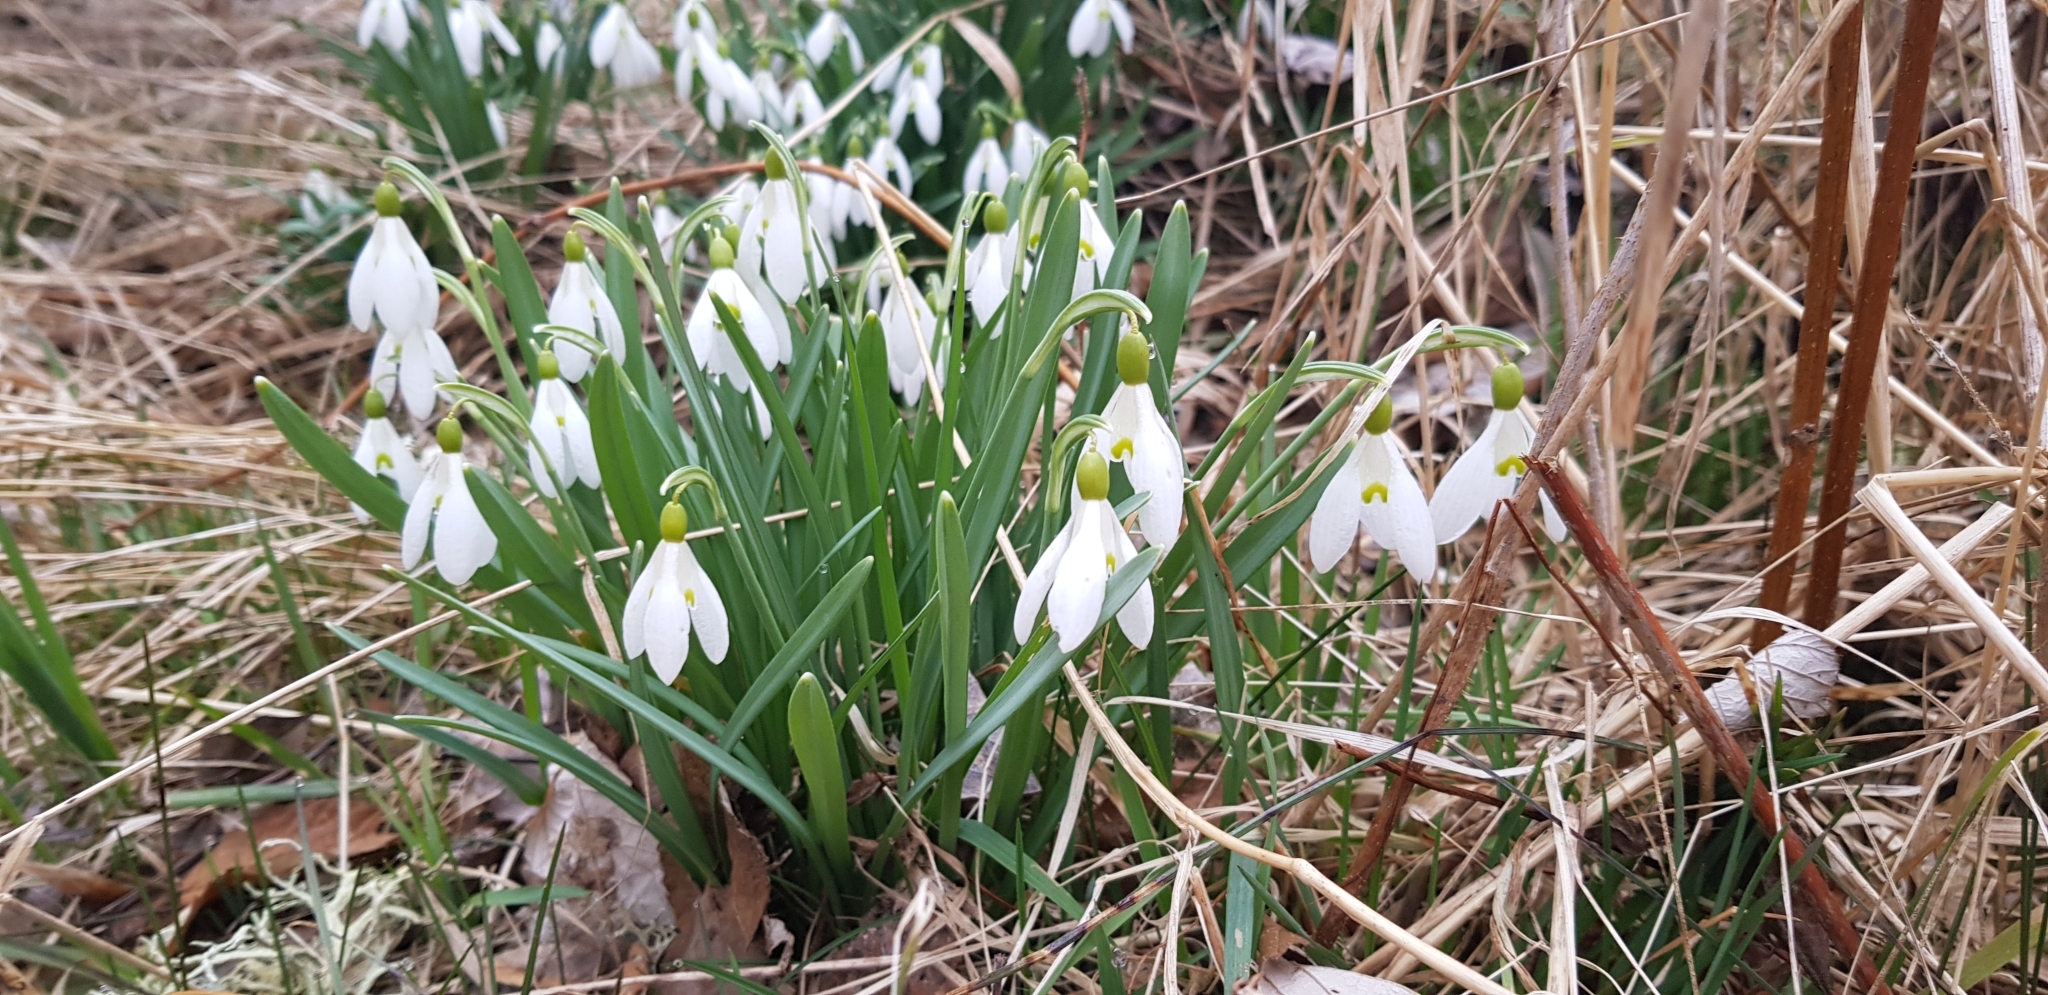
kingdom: Plantae
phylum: Tracheophyta
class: Liliopsida
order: Asparagales
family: Amaryllidaceae
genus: Galanthus
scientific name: Galanthus nivalis
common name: Snowdrop
